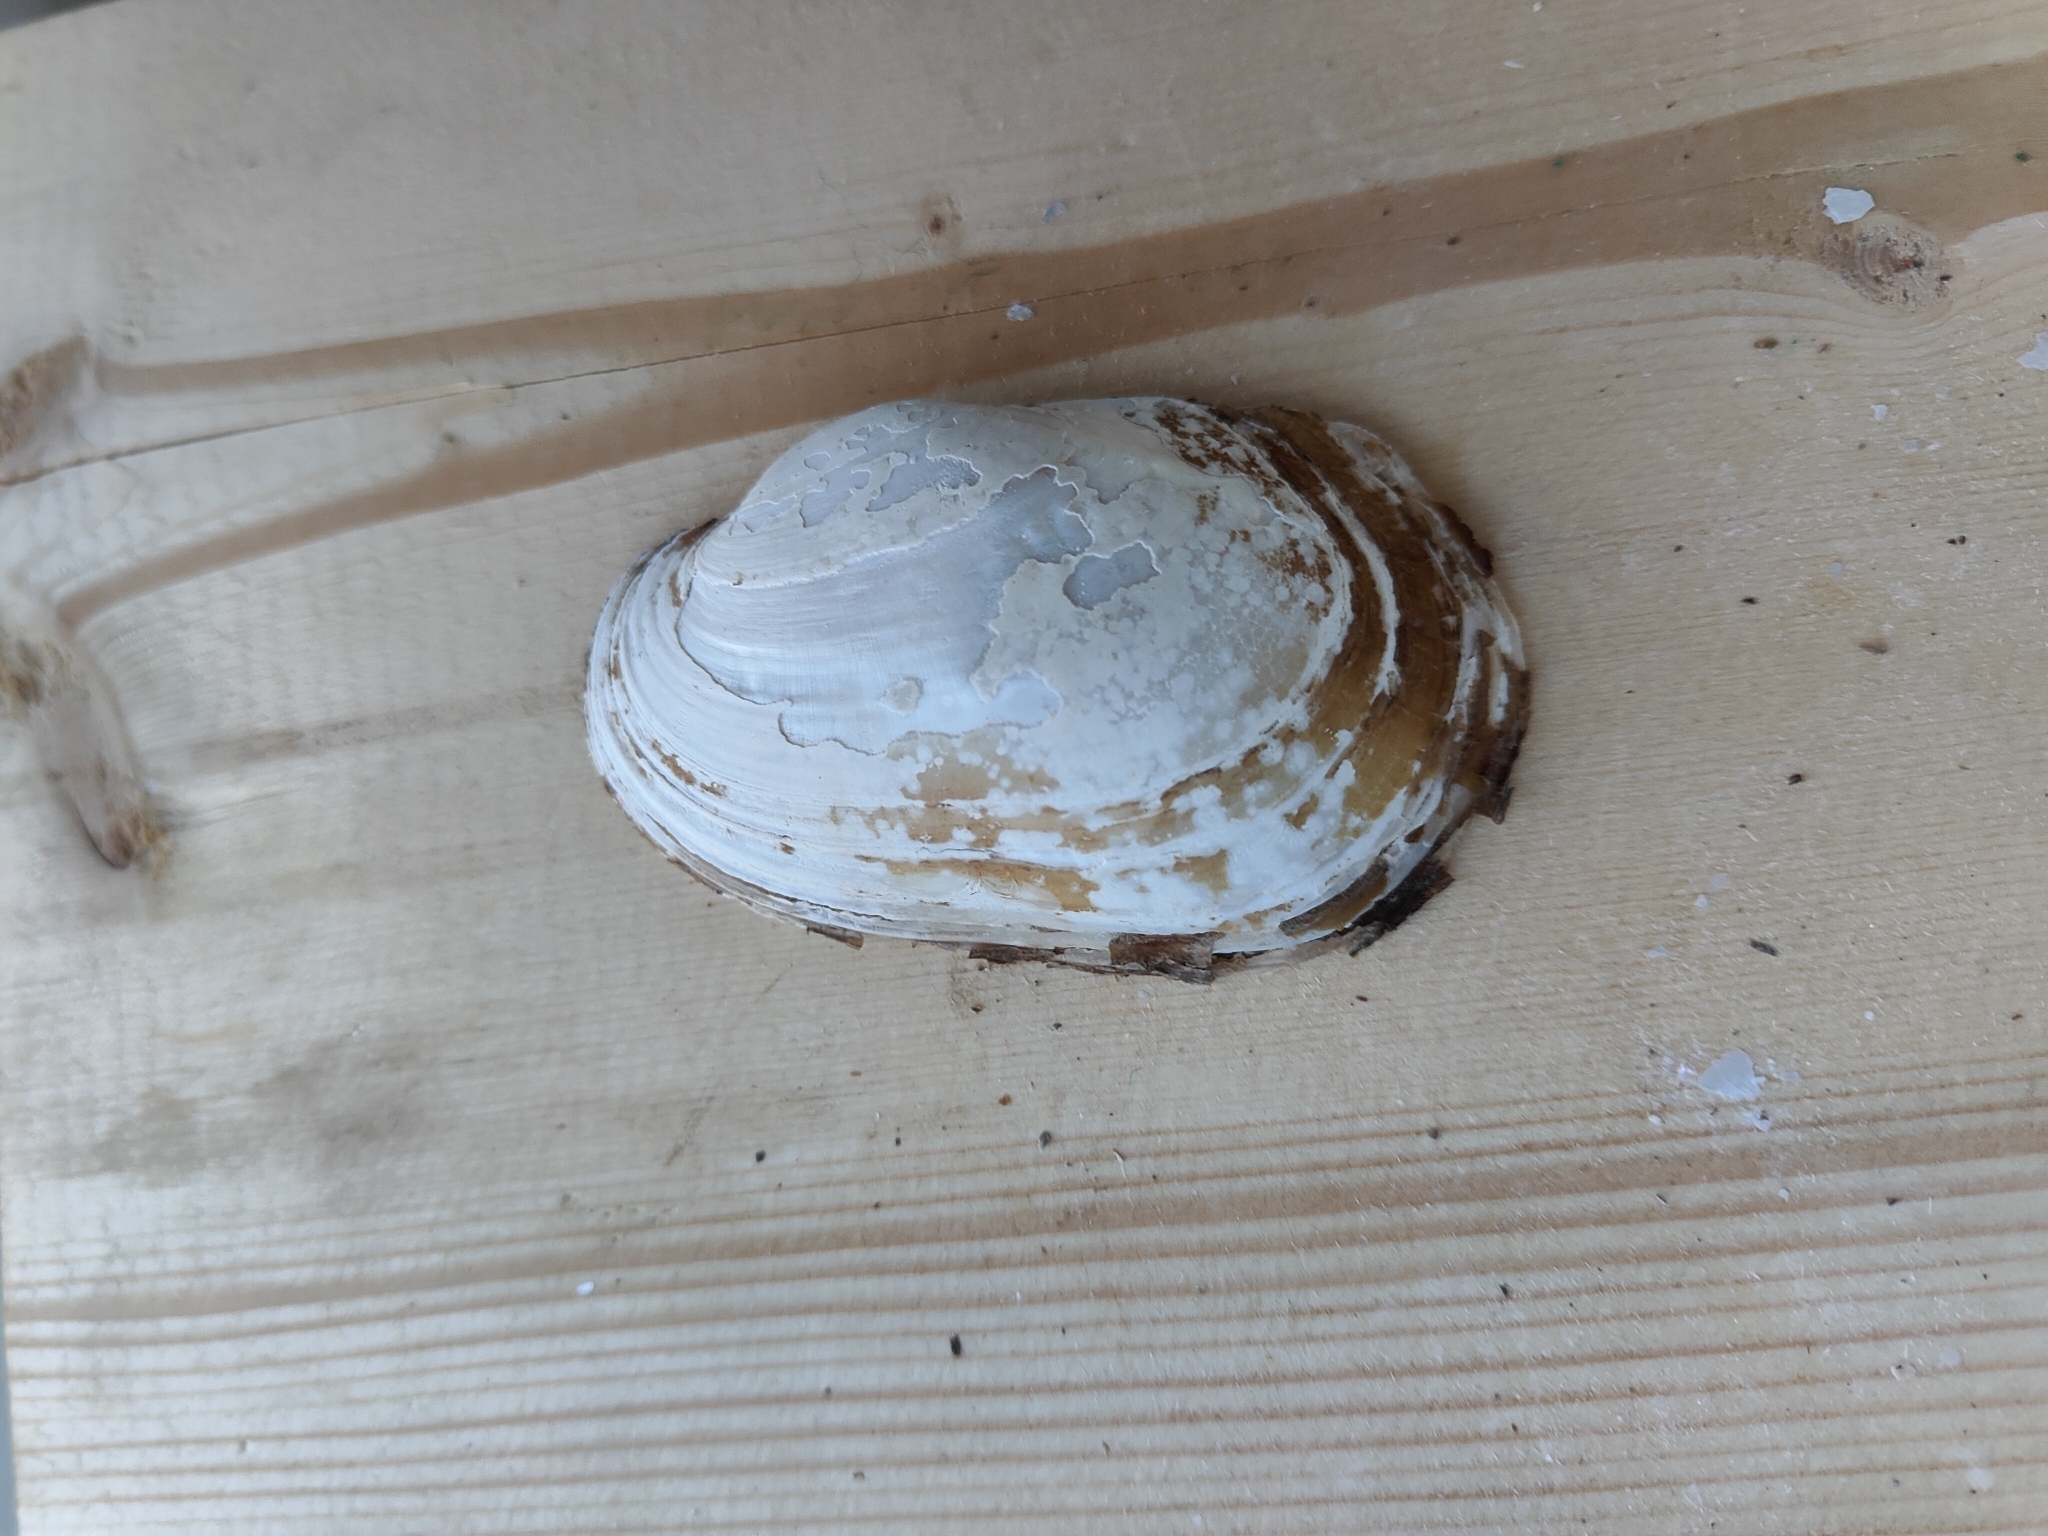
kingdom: Animalia
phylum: Mollusca
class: Bivalvia
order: Unionida
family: Unionidae
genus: Lampsilis
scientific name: Lampsilis siliquoidea
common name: Fatmucket
